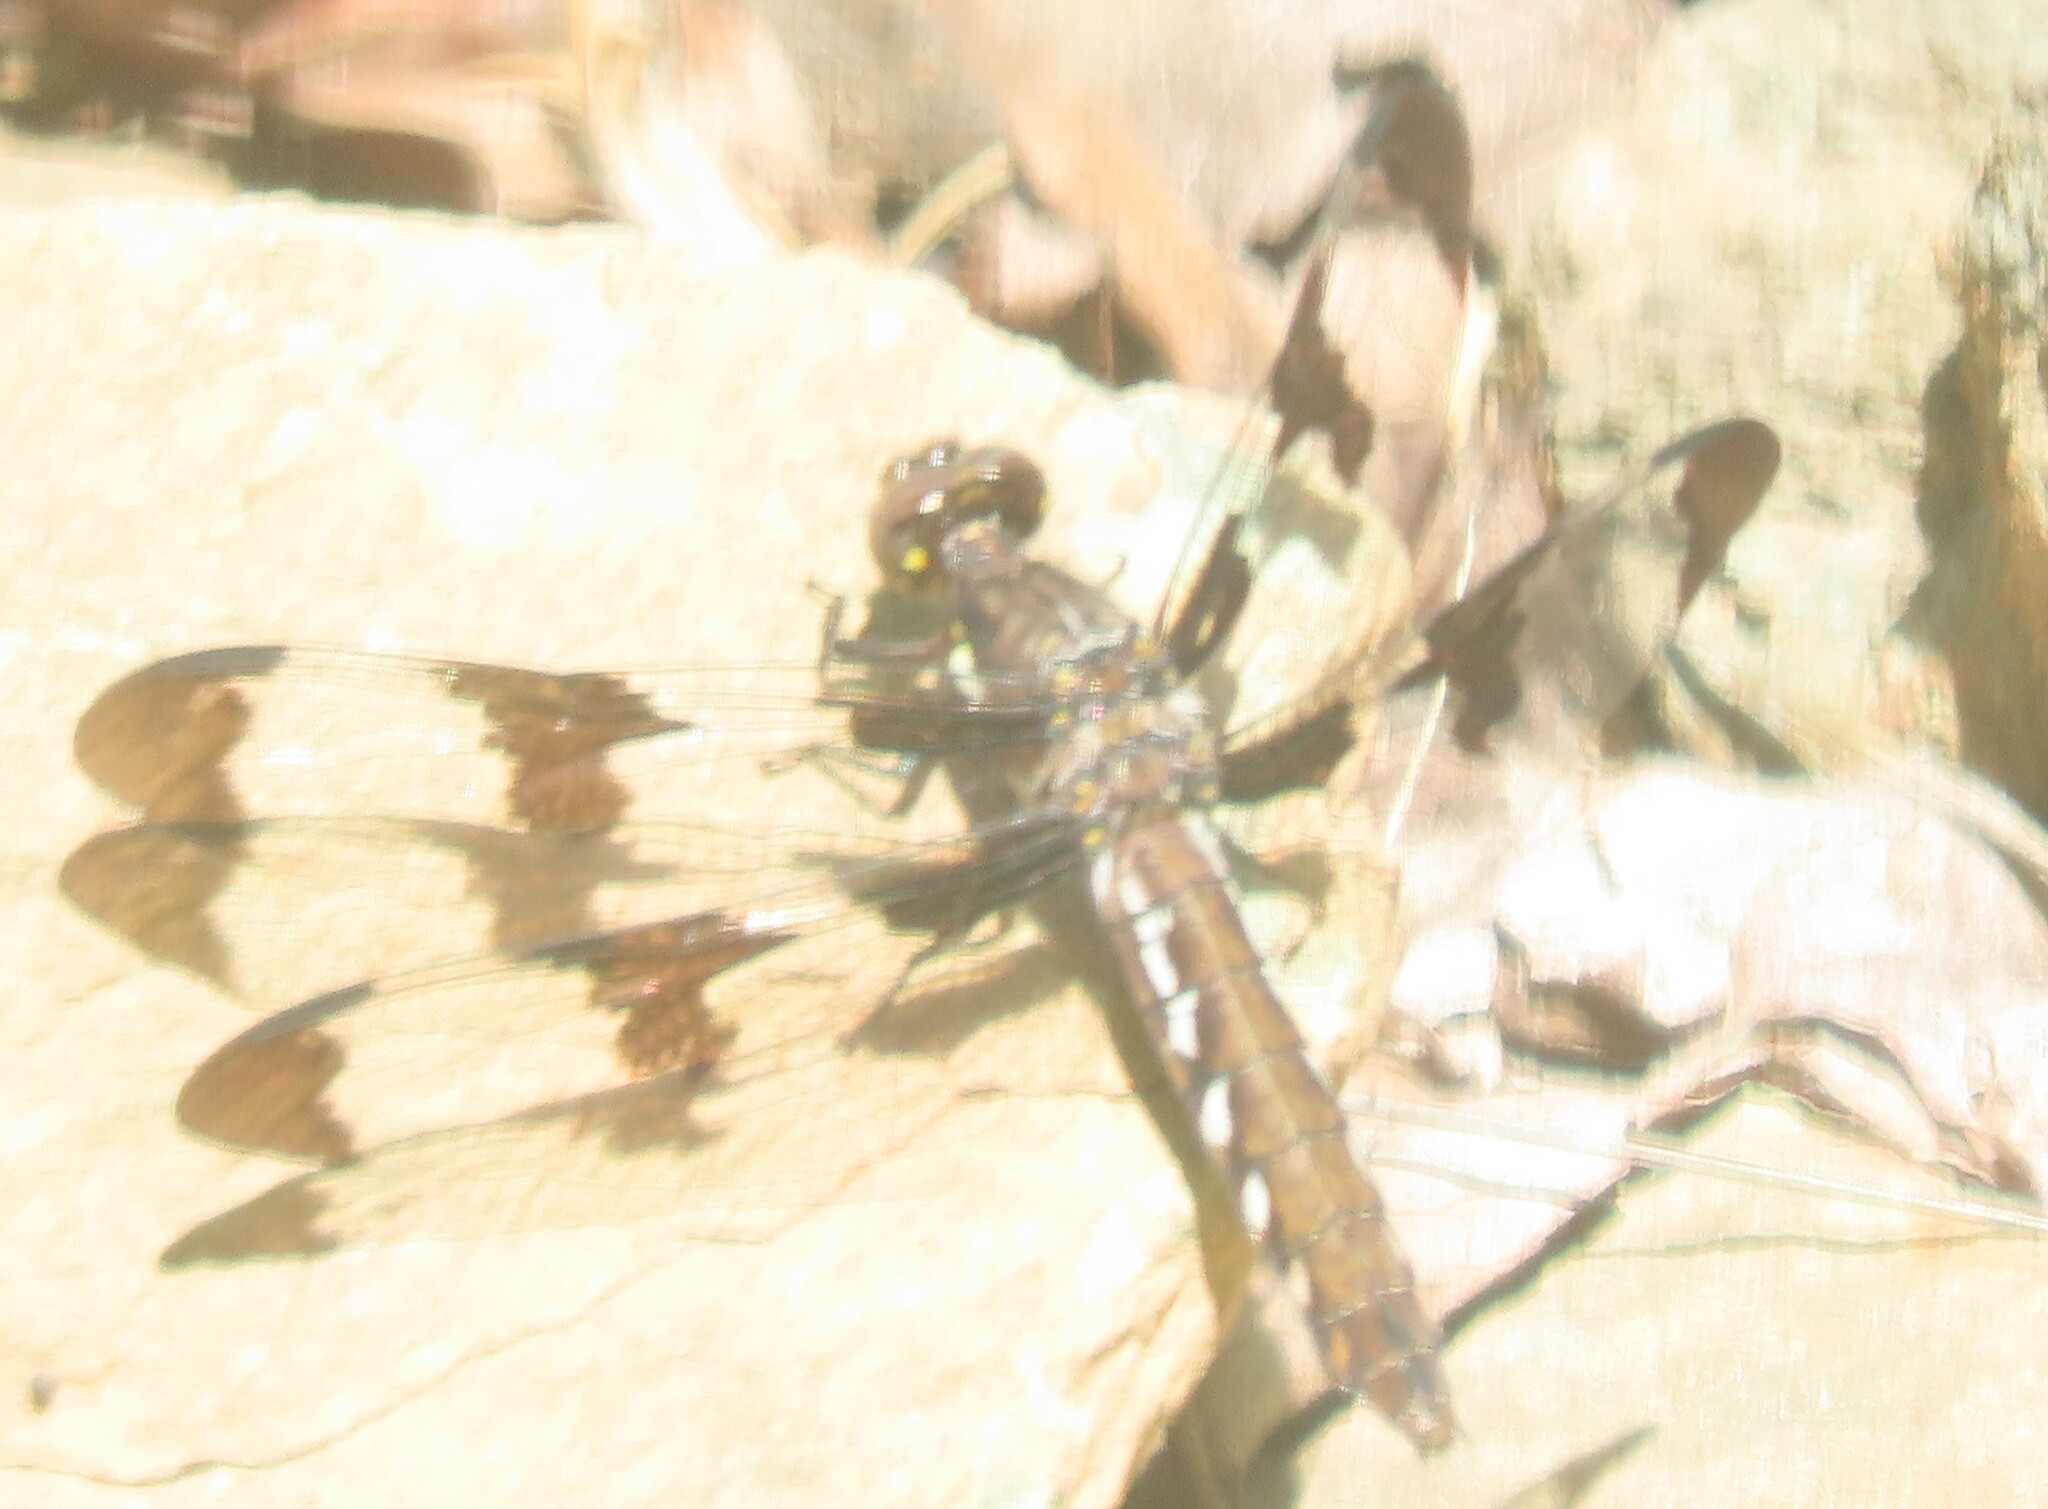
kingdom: Animalia
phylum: Arthropoda
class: Insecta
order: Odonata
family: Libellulidae
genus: Plathemis
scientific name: Plathemis lydia
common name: Common whitetail
